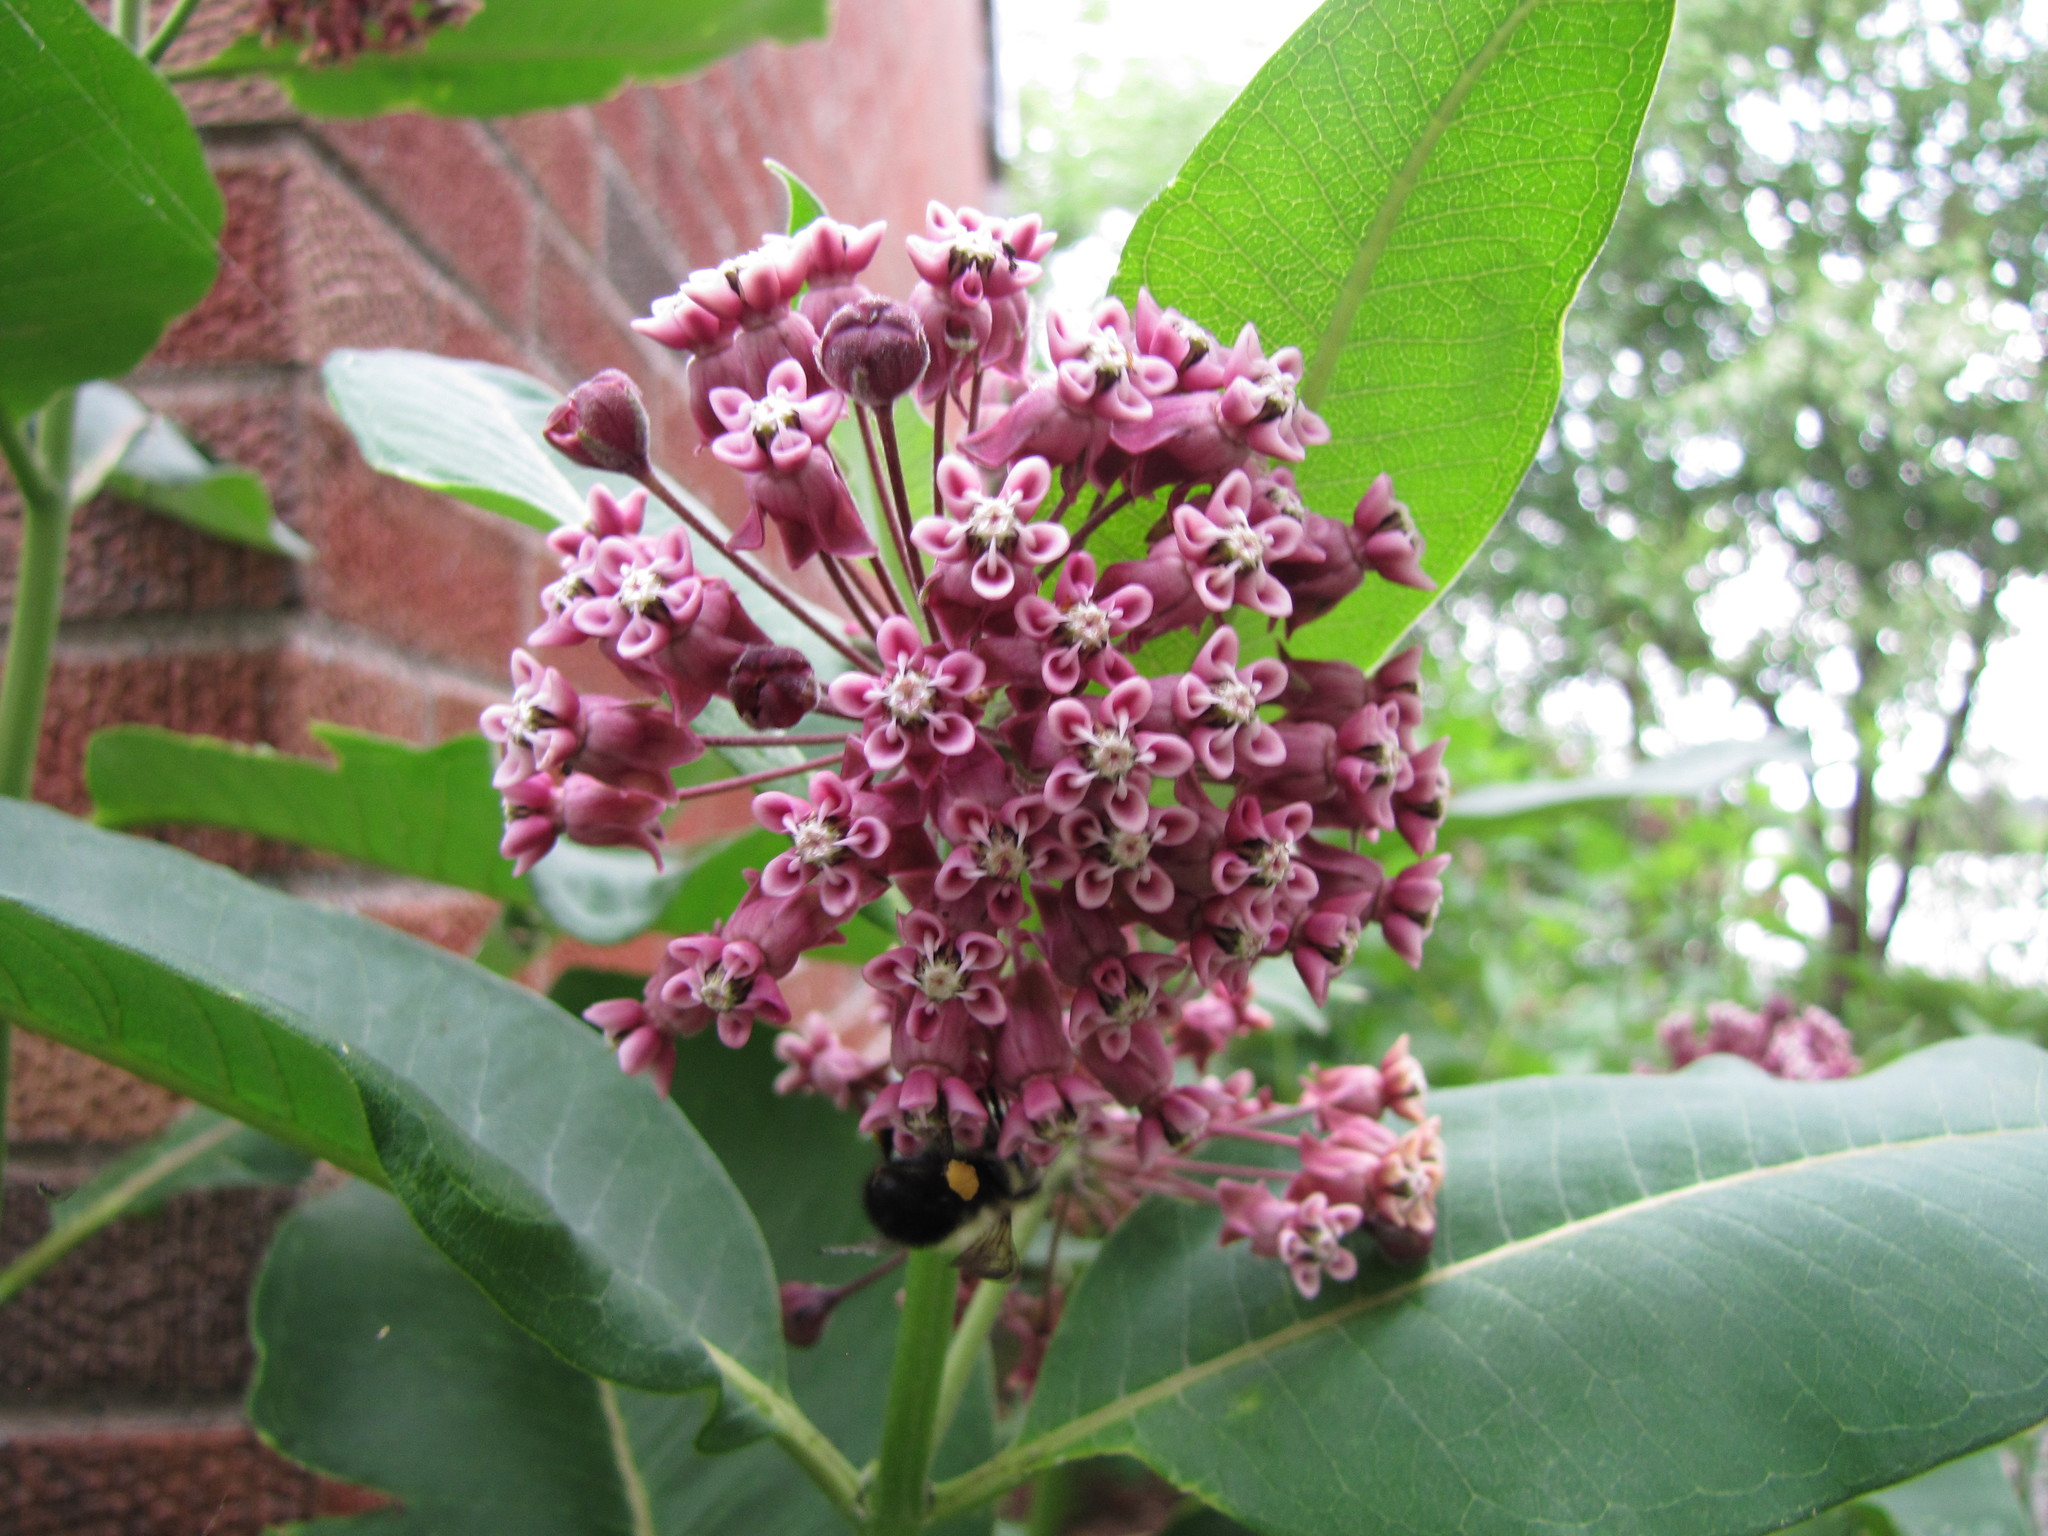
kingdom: Plantae
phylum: Tracheophyta
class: Magnoliopsida
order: Gentianales
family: Apocynaceae
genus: Asclepias
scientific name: Asclepias syriaca
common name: Common milkweed
